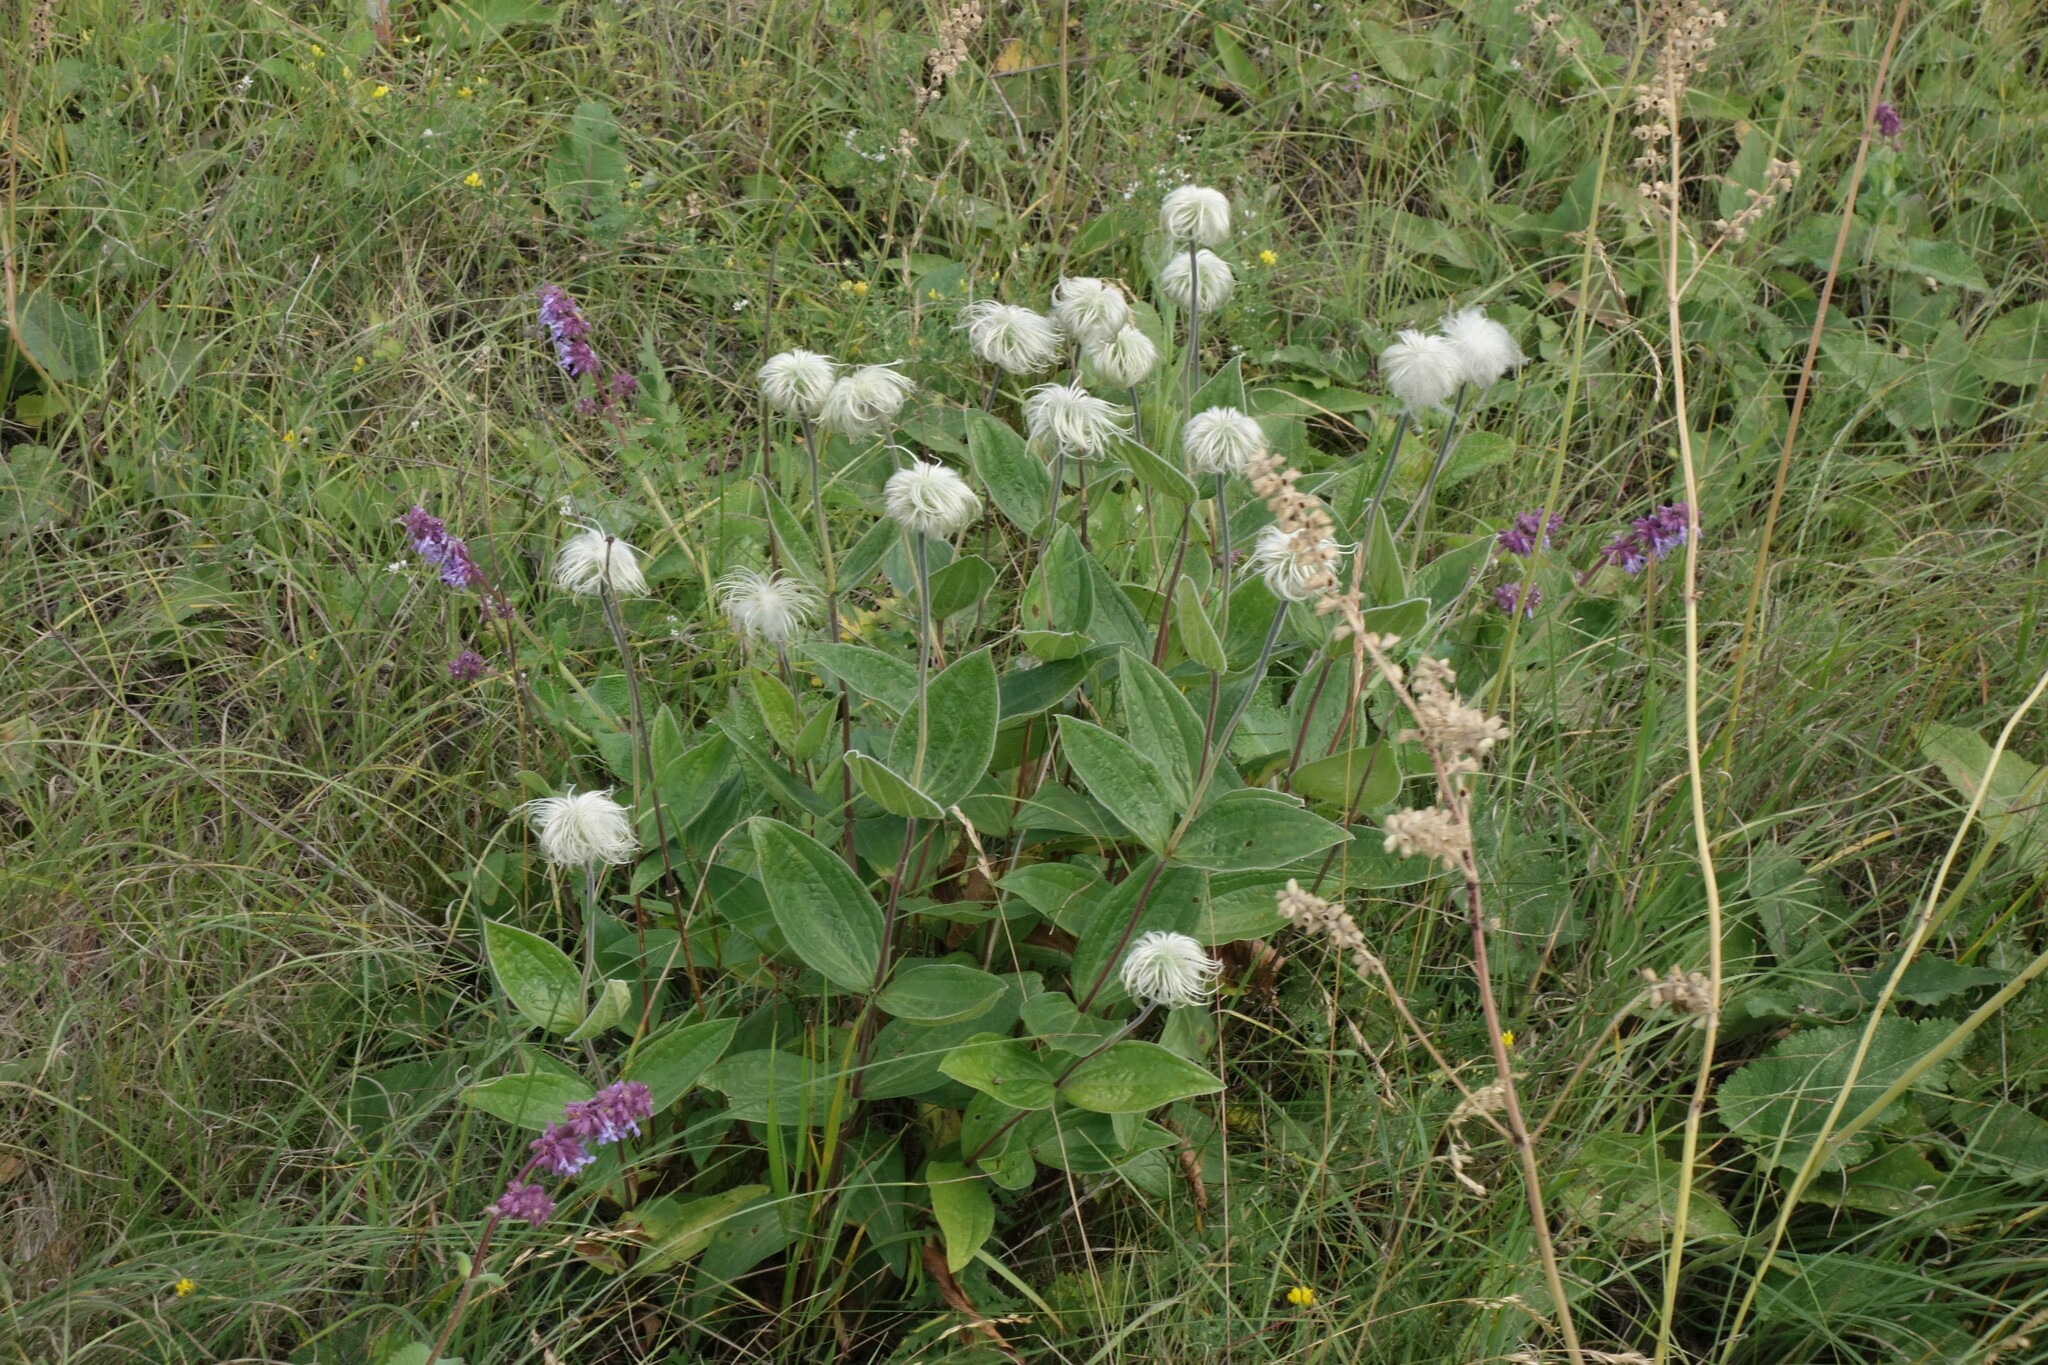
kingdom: Plantae
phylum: Tracheophyta
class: Magnoliopsida
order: Ranunculales
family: Ranunculaceae
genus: Clematis
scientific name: Clematis integrifolia
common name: Solitary clematis
